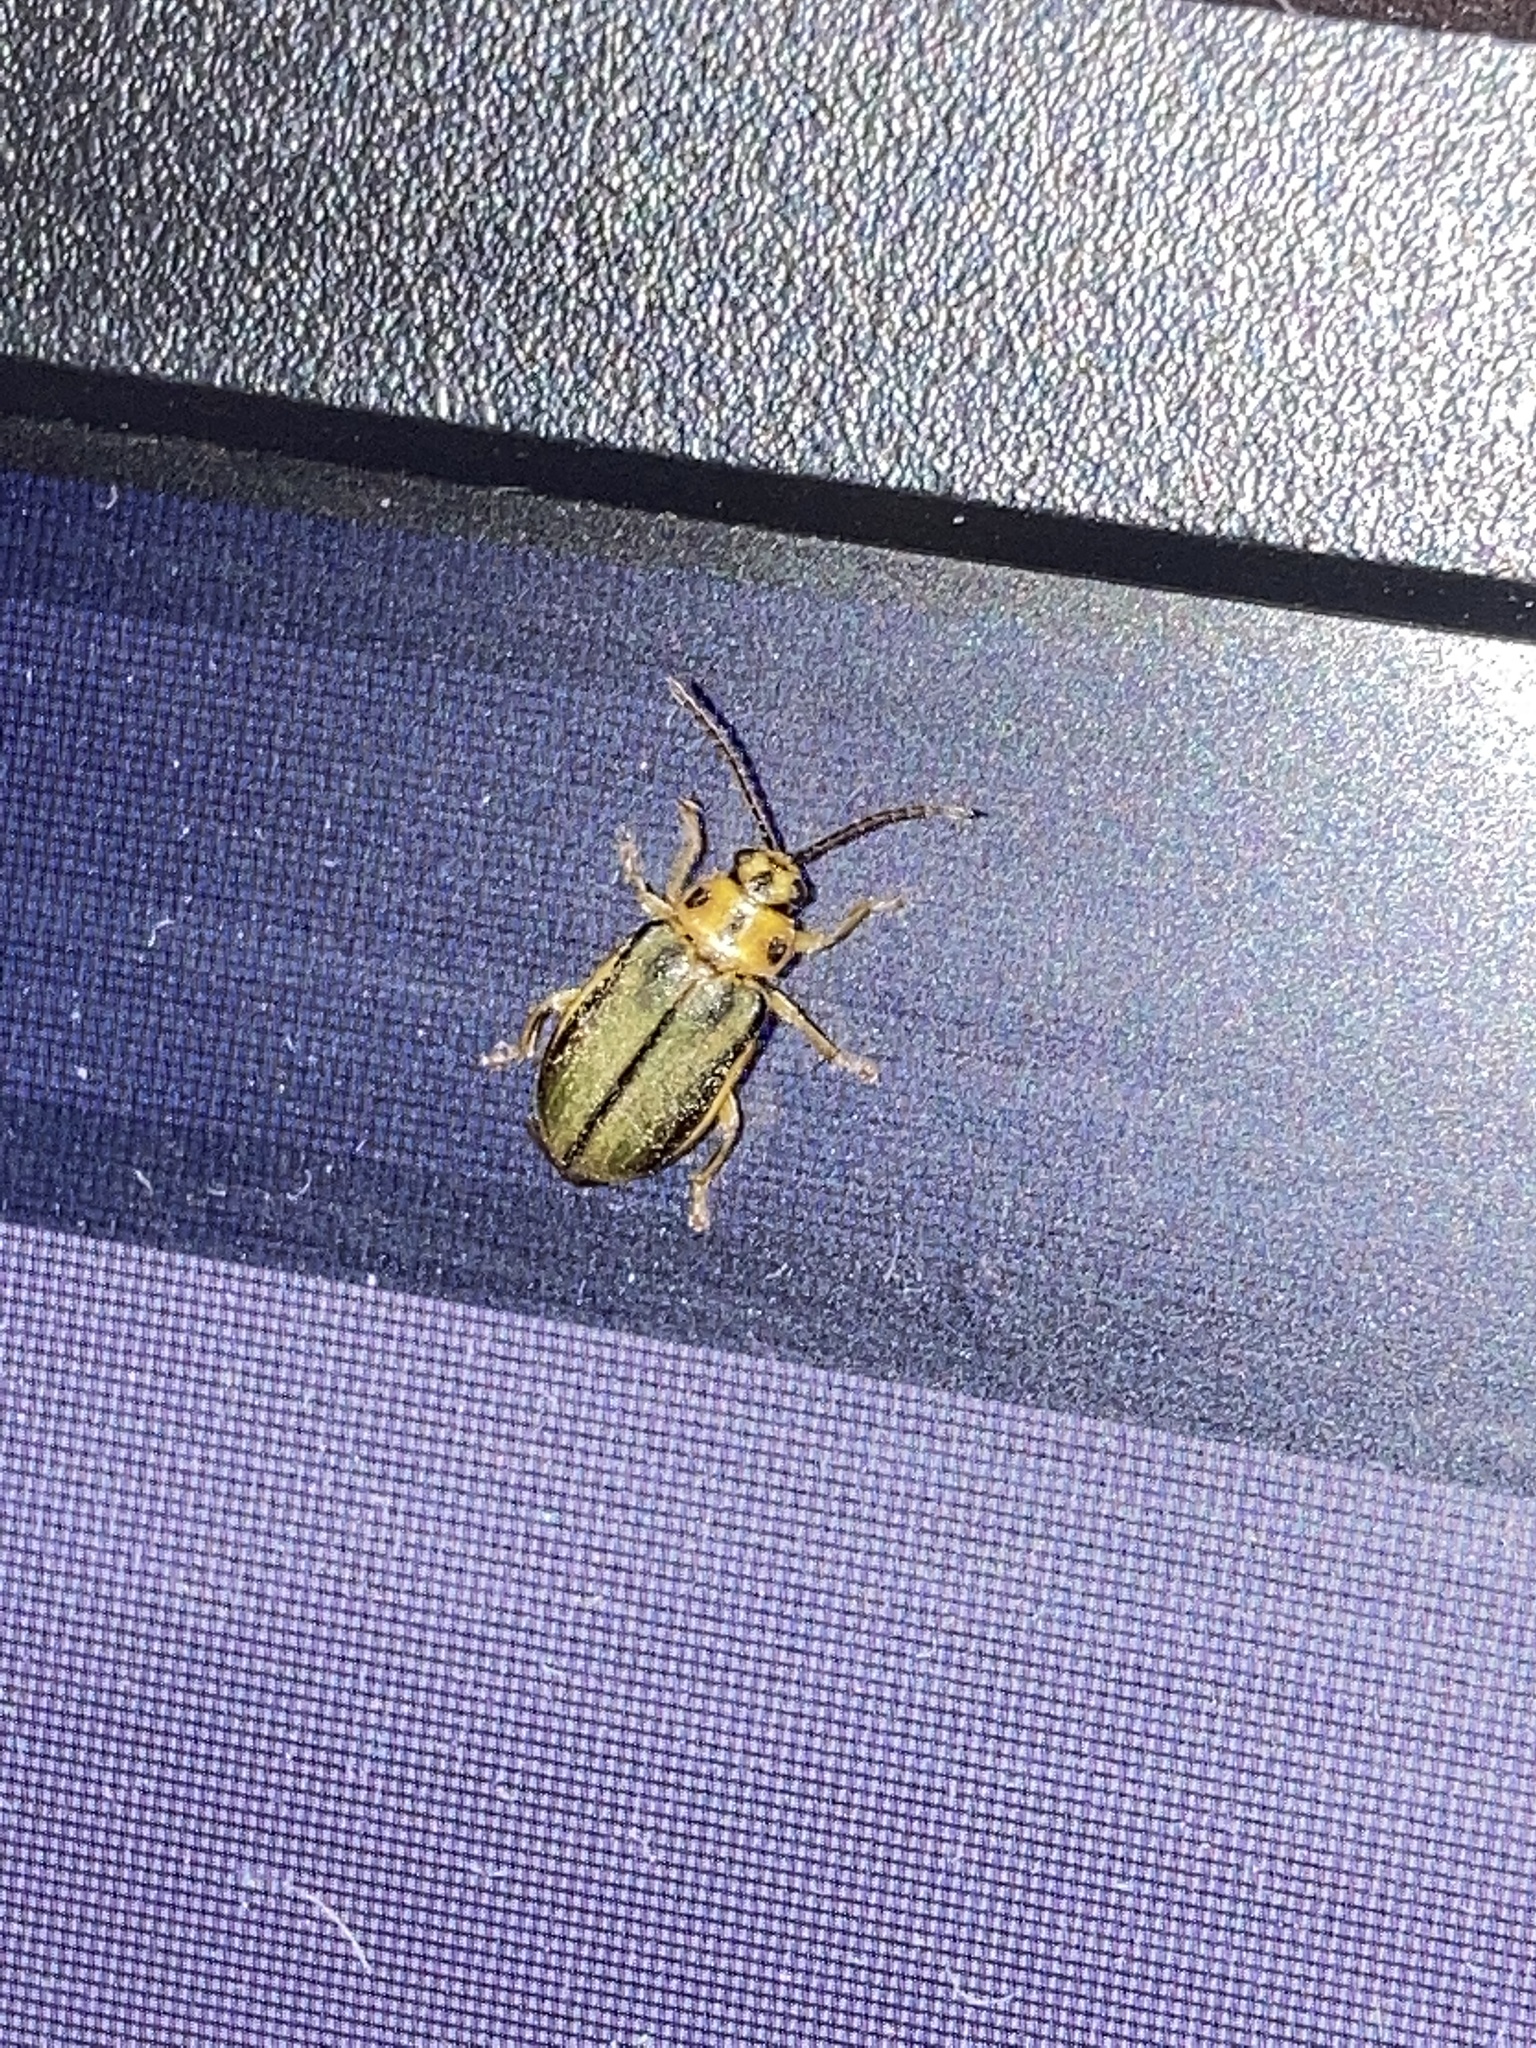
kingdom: Animalia
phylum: Arthropoda
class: Insecta
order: Coleoptera
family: Chrysomelidae
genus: Xanthogaleruca
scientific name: Xanthogaleruca luteola
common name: Elm leaf beetle
